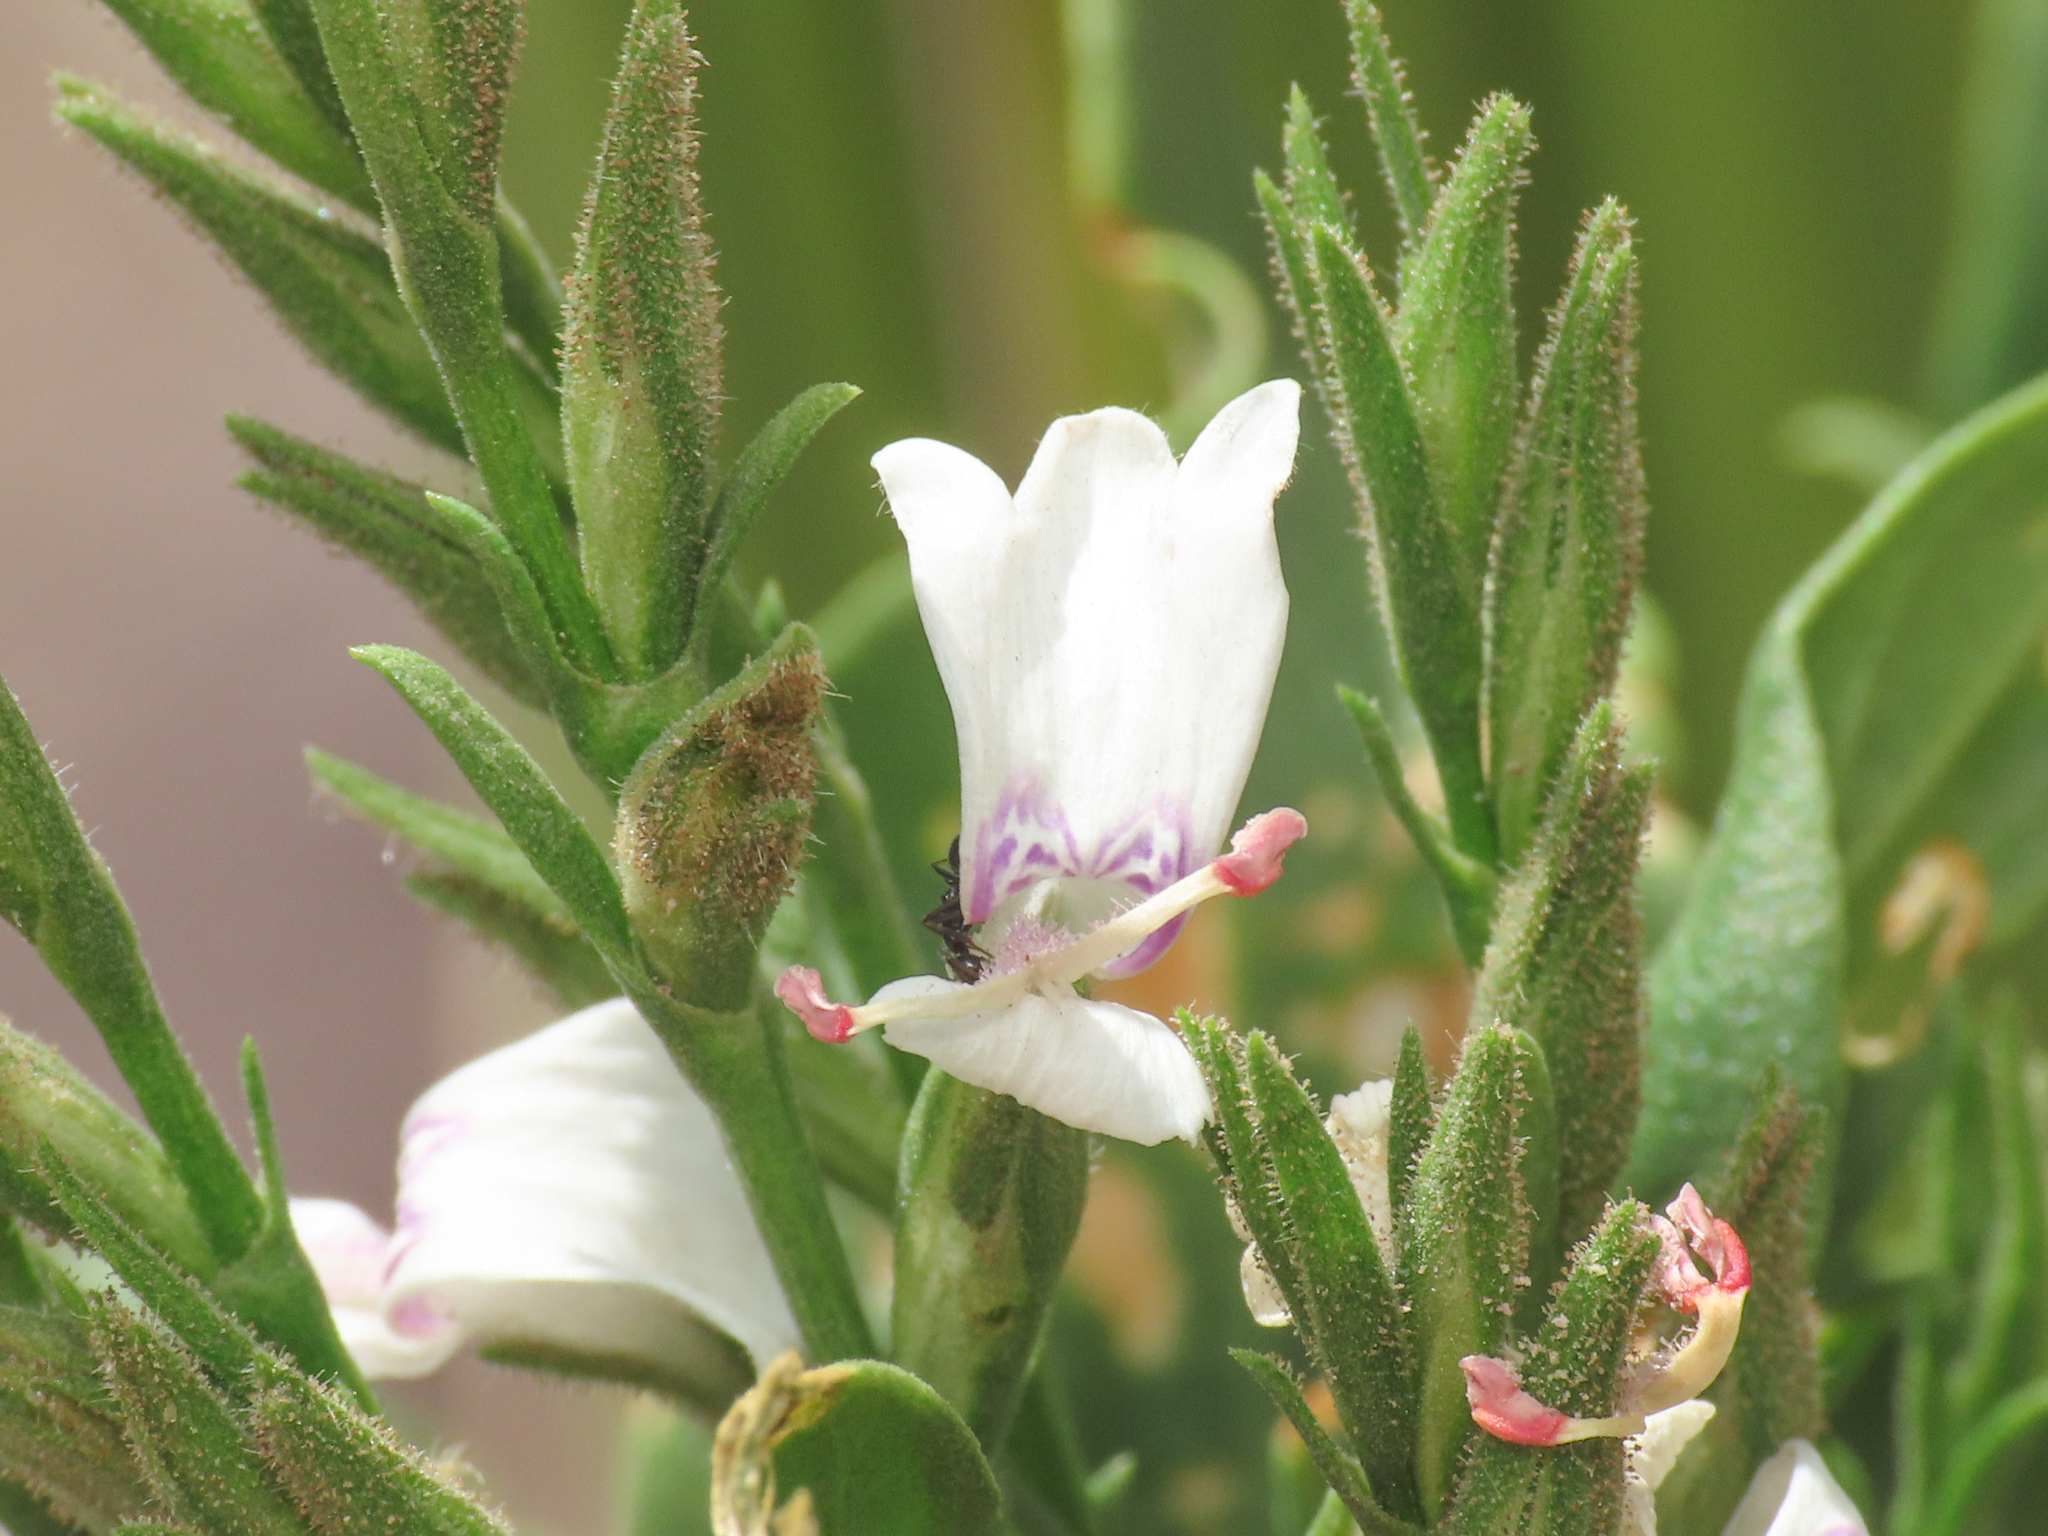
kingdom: Plantae
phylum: Tracheophyta
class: Magnoliopsida
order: Lamiales
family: Acanthaceae
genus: Hypoestes
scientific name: Hypoestes forskaolii
